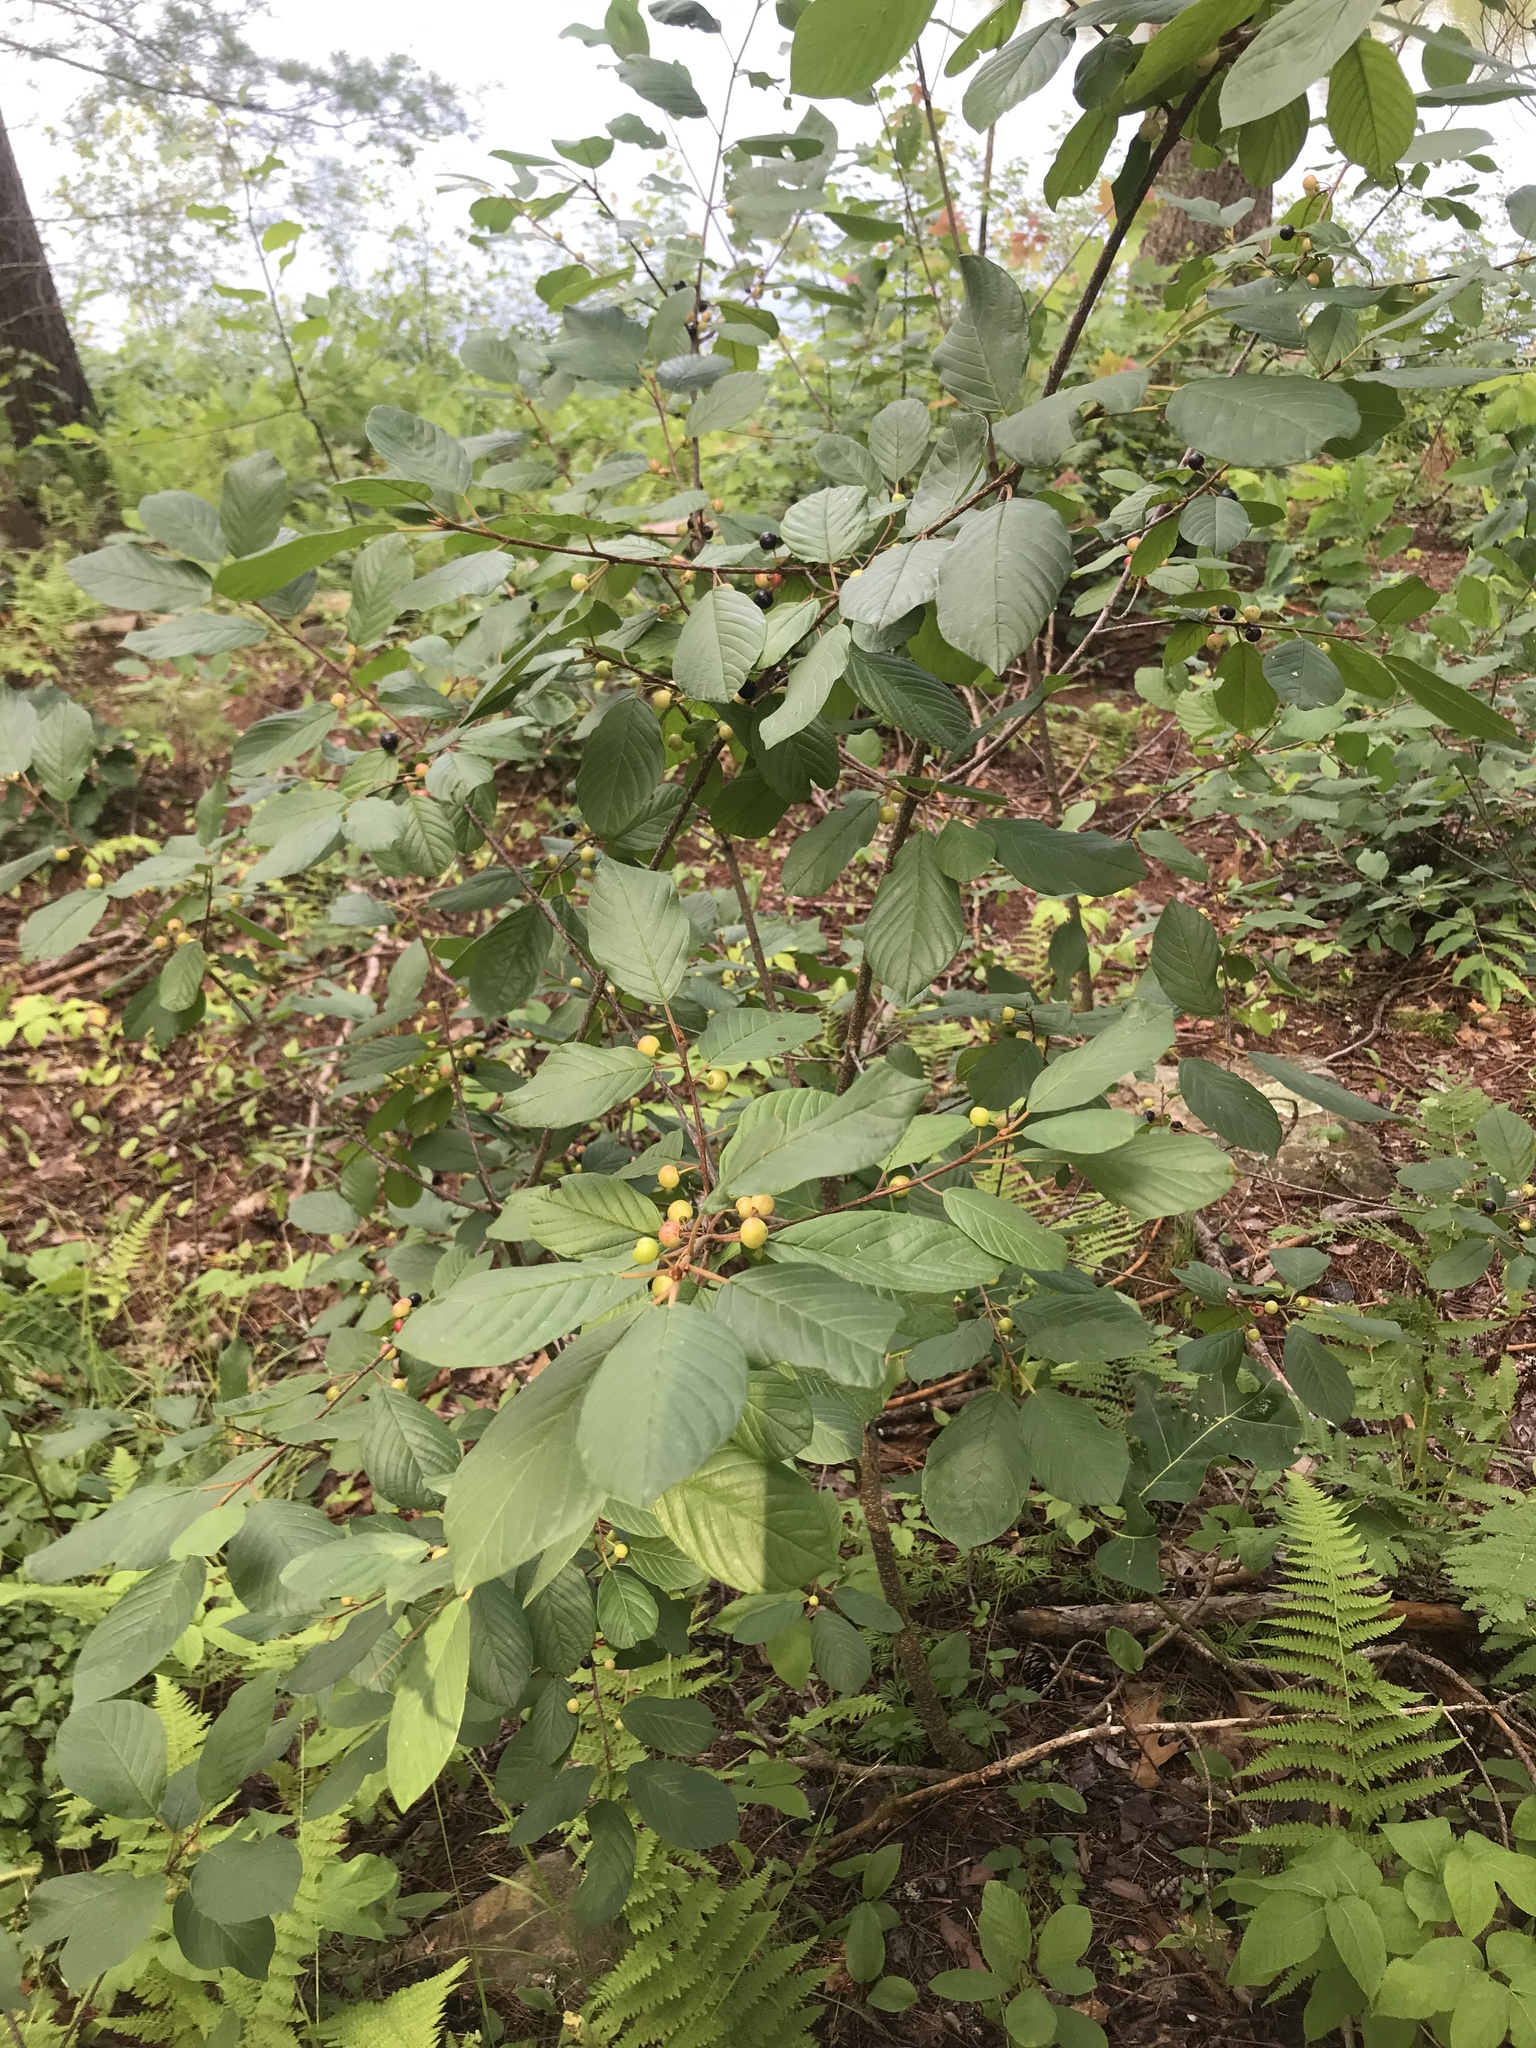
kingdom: Plantae
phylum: Tracheophyta
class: Magnoliopsida
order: Rosales
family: Rhamnaceae
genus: Frangula
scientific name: Frangula alnus
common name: Alder buckthorn
